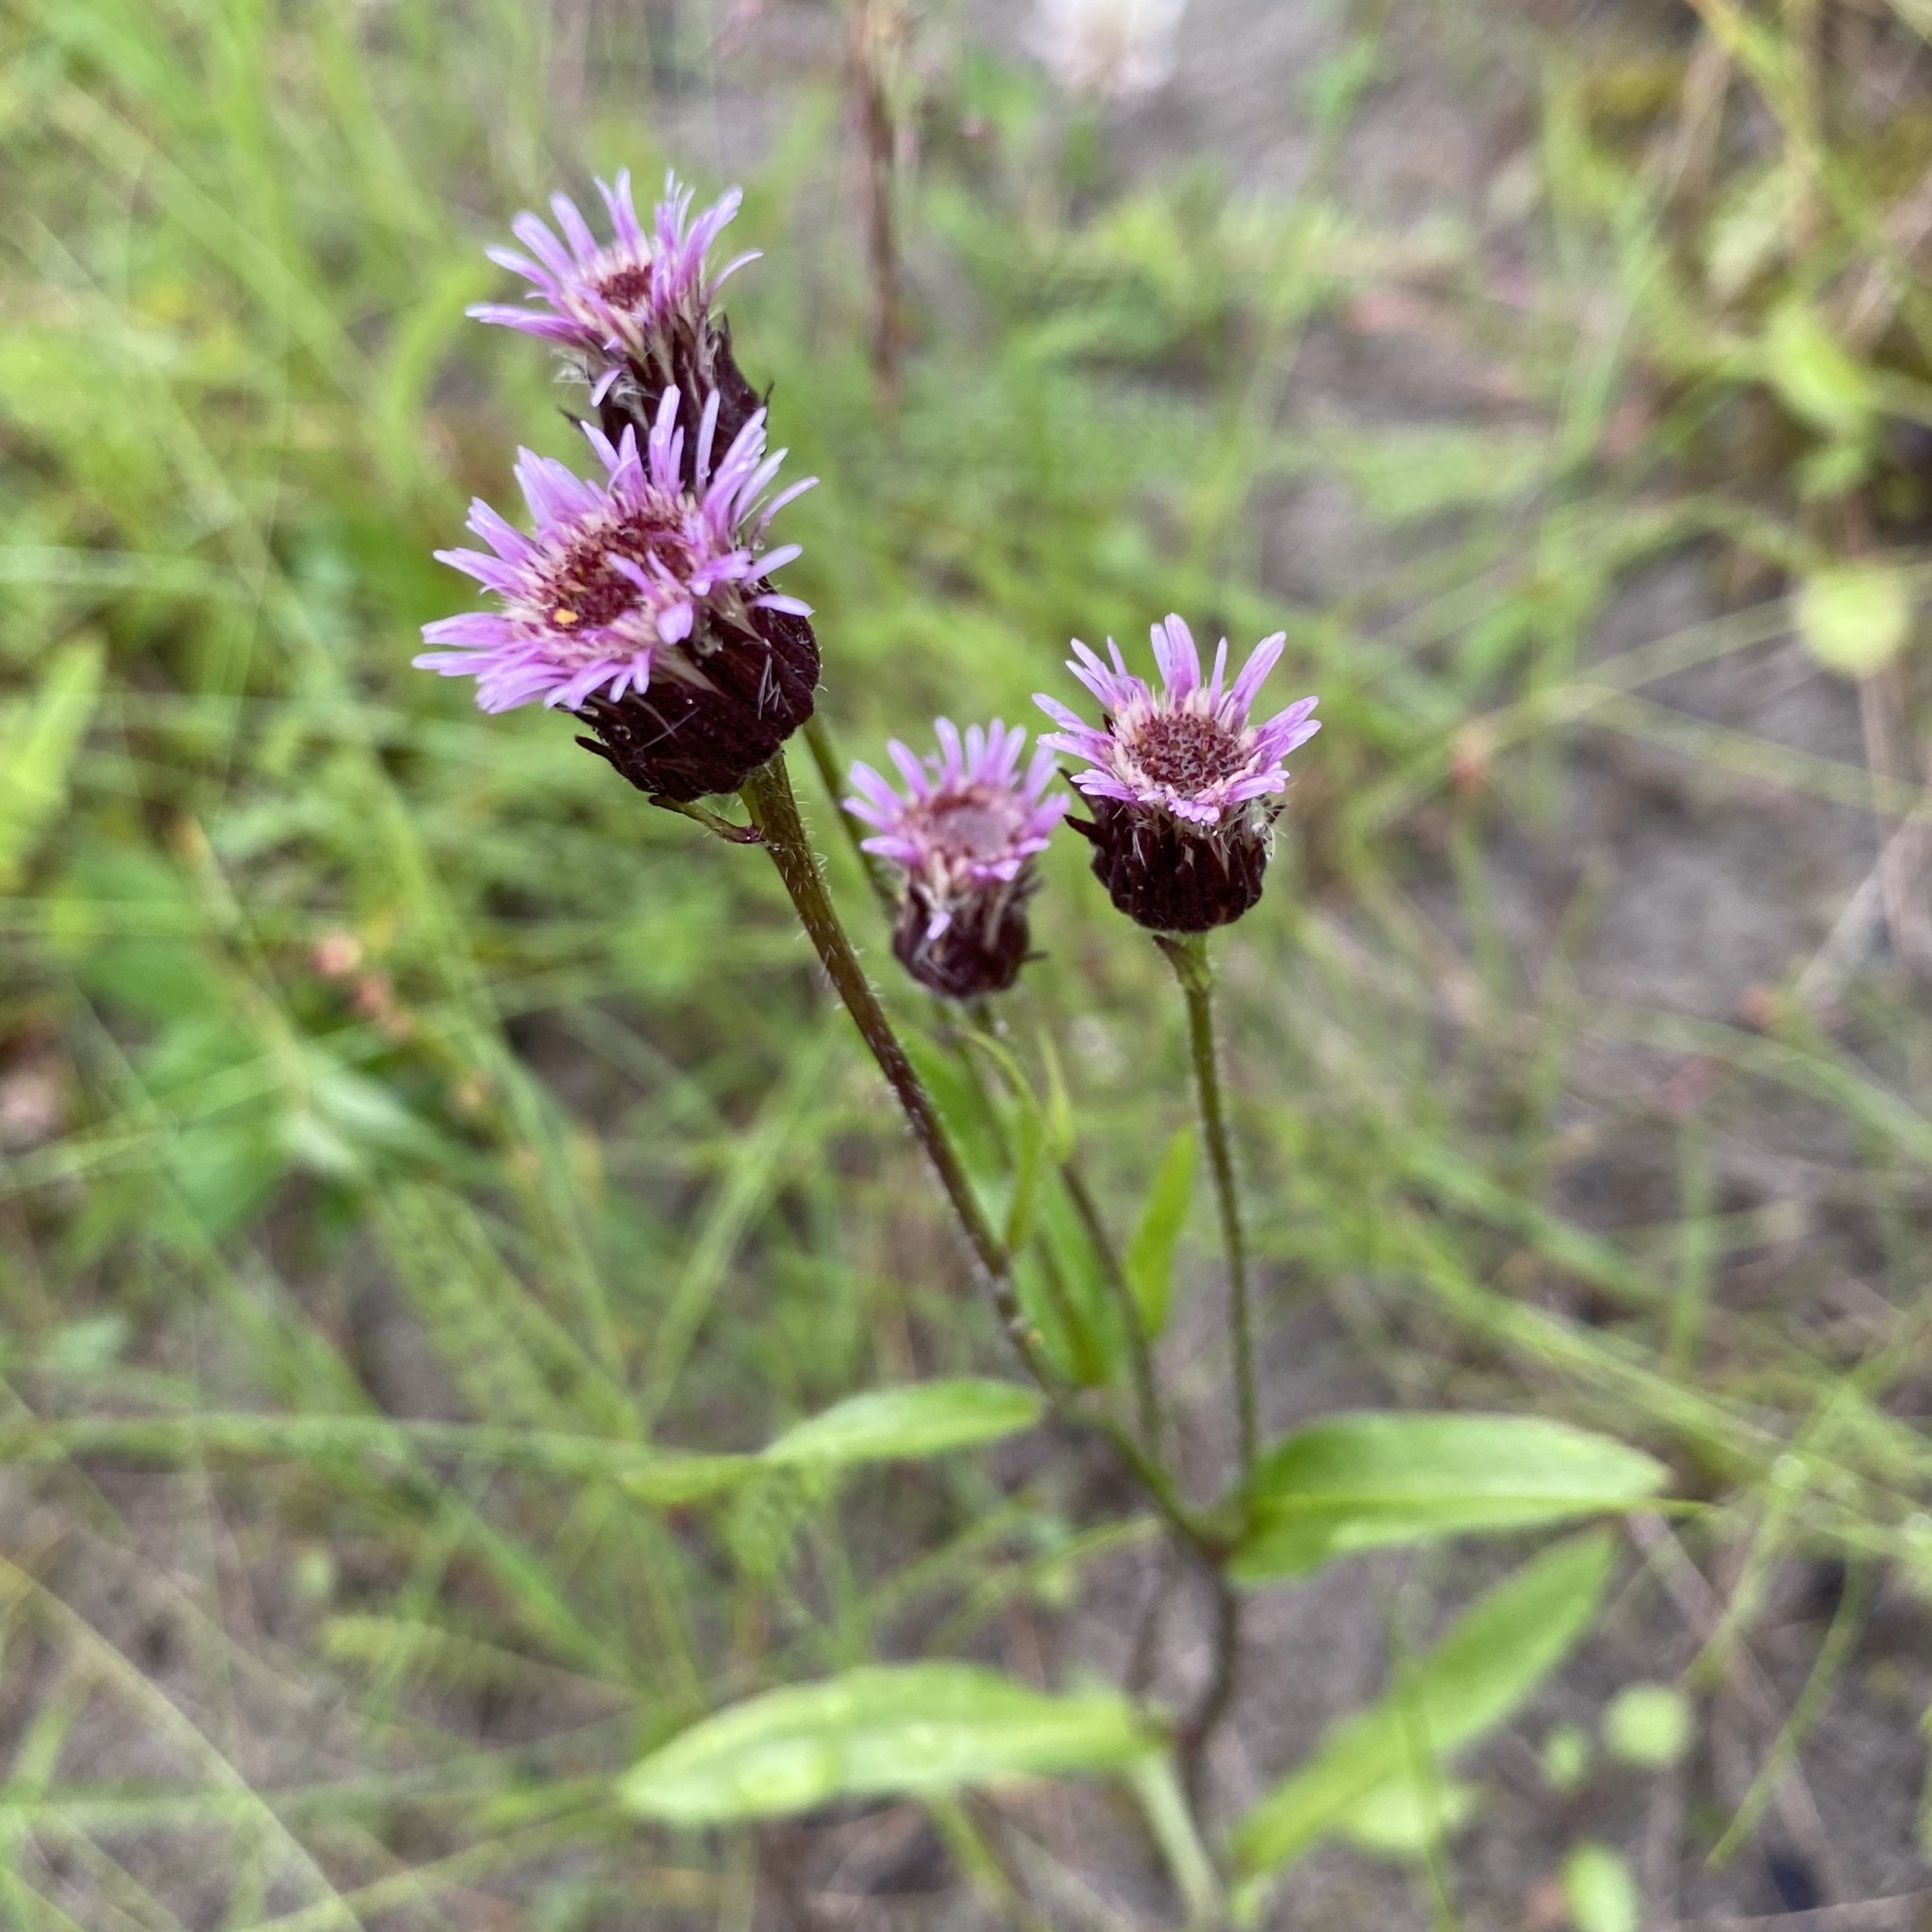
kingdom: Plantae
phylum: Tracheophyta
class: Magnoliopsida
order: Asterales
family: Asteraceae
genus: Erigeron
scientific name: Erigeron
